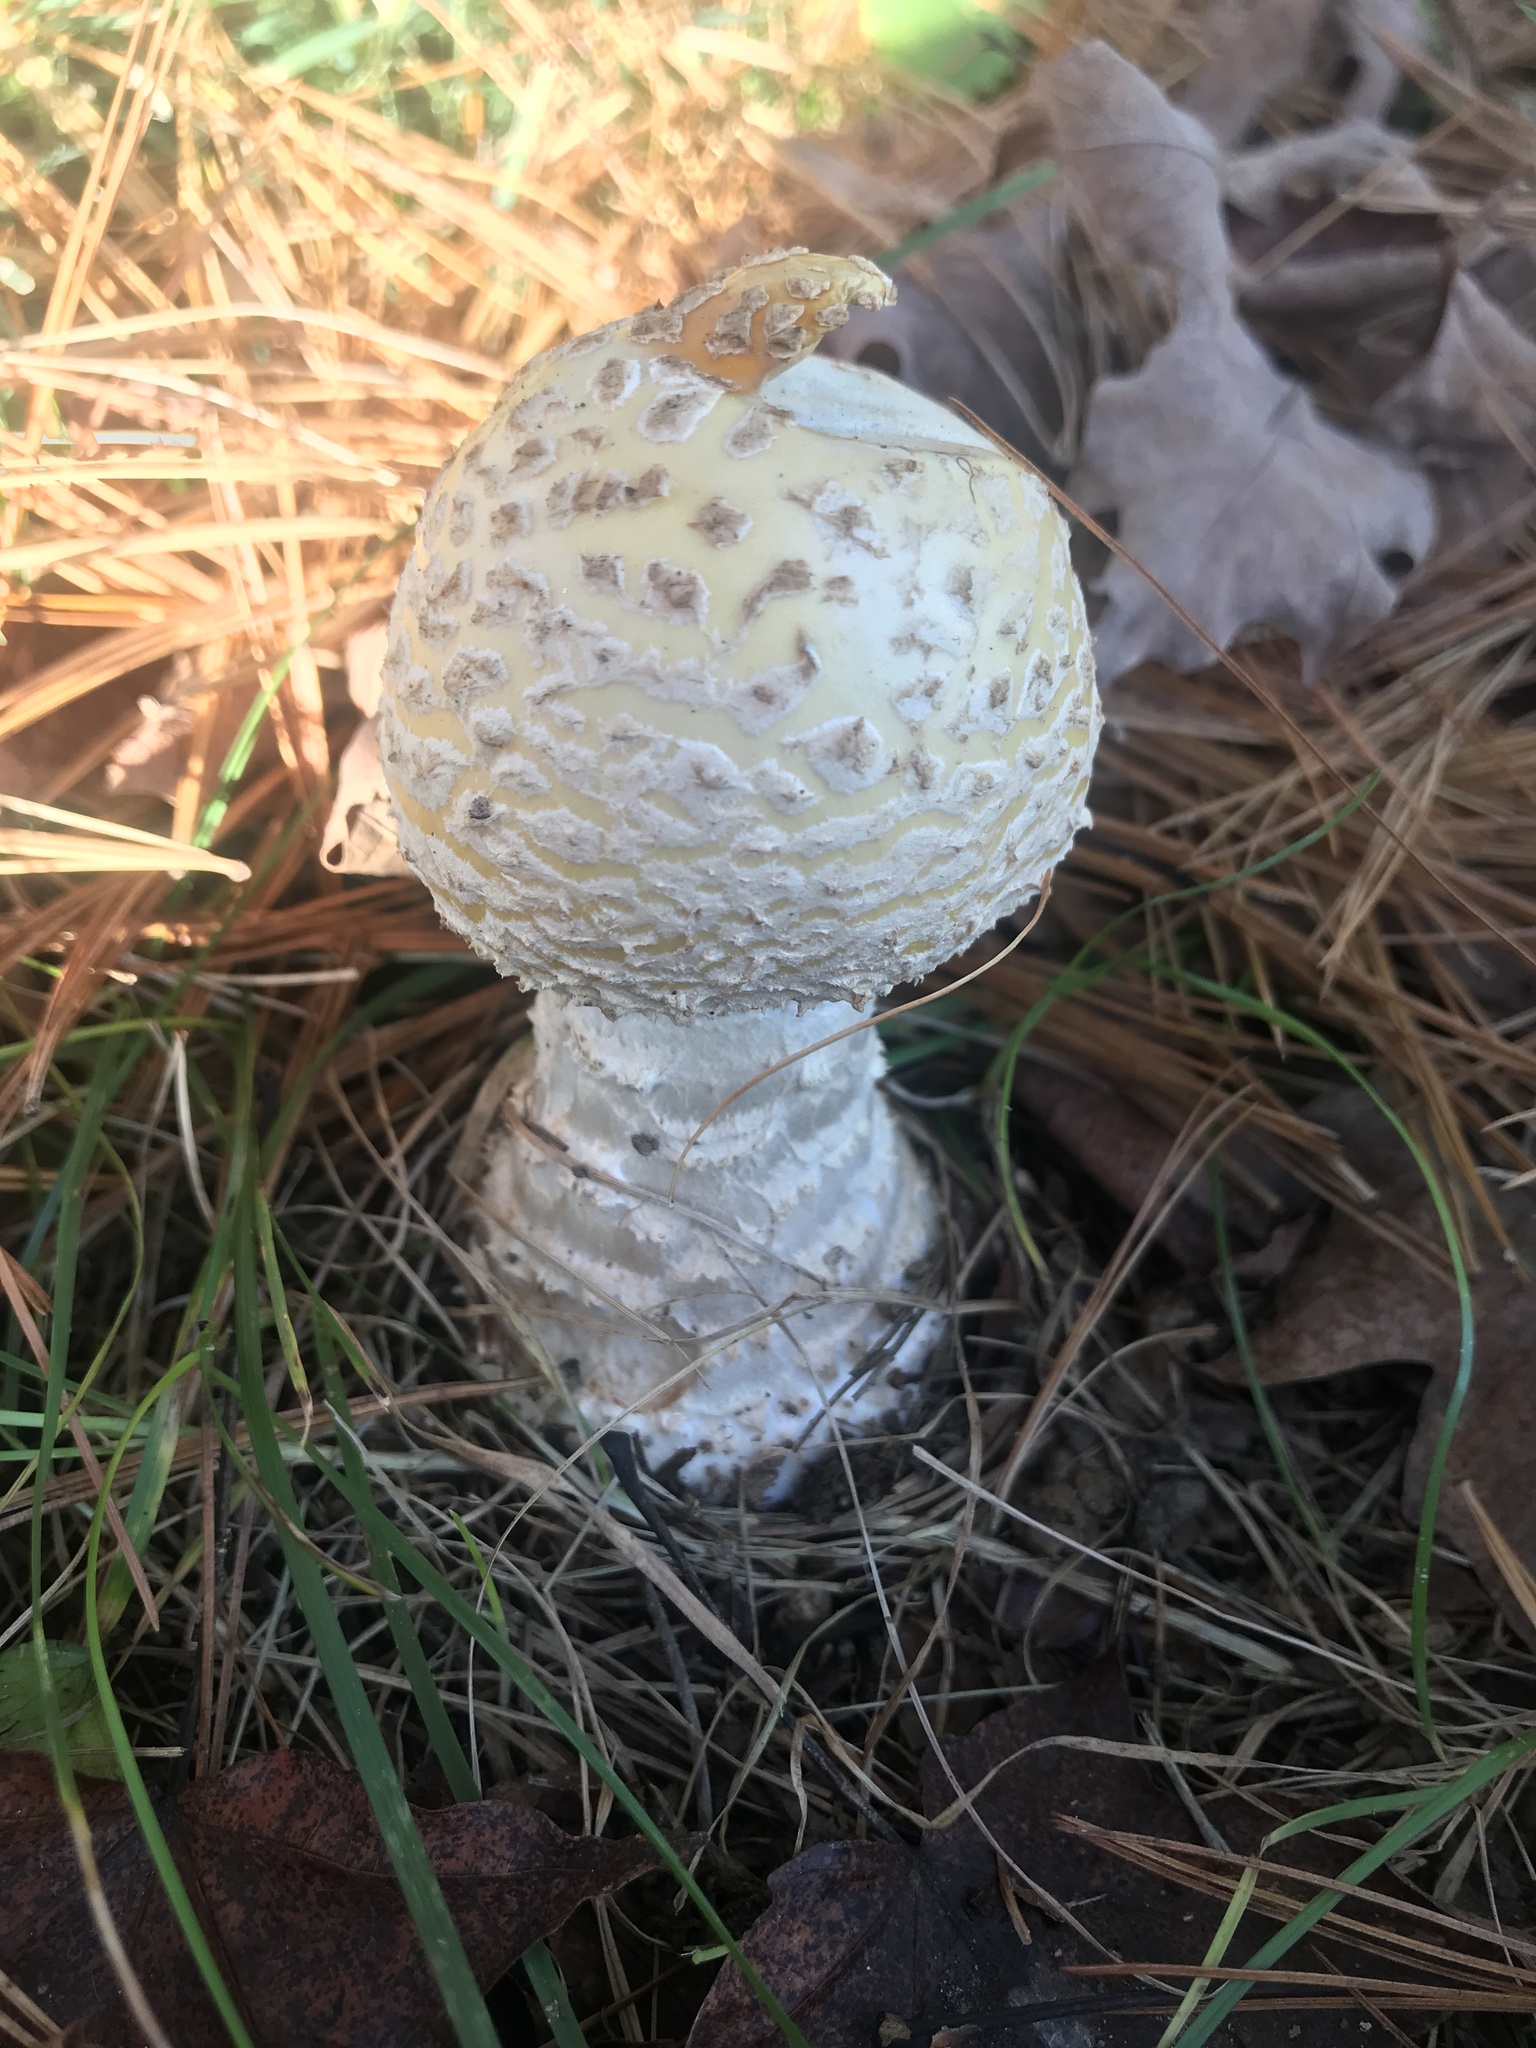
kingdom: Fungi
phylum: Basidiomycota
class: Agaricomycetes
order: Agaricales
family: Amanitaceae
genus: Amanita
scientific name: Amanita muscaria
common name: Fly agaric
